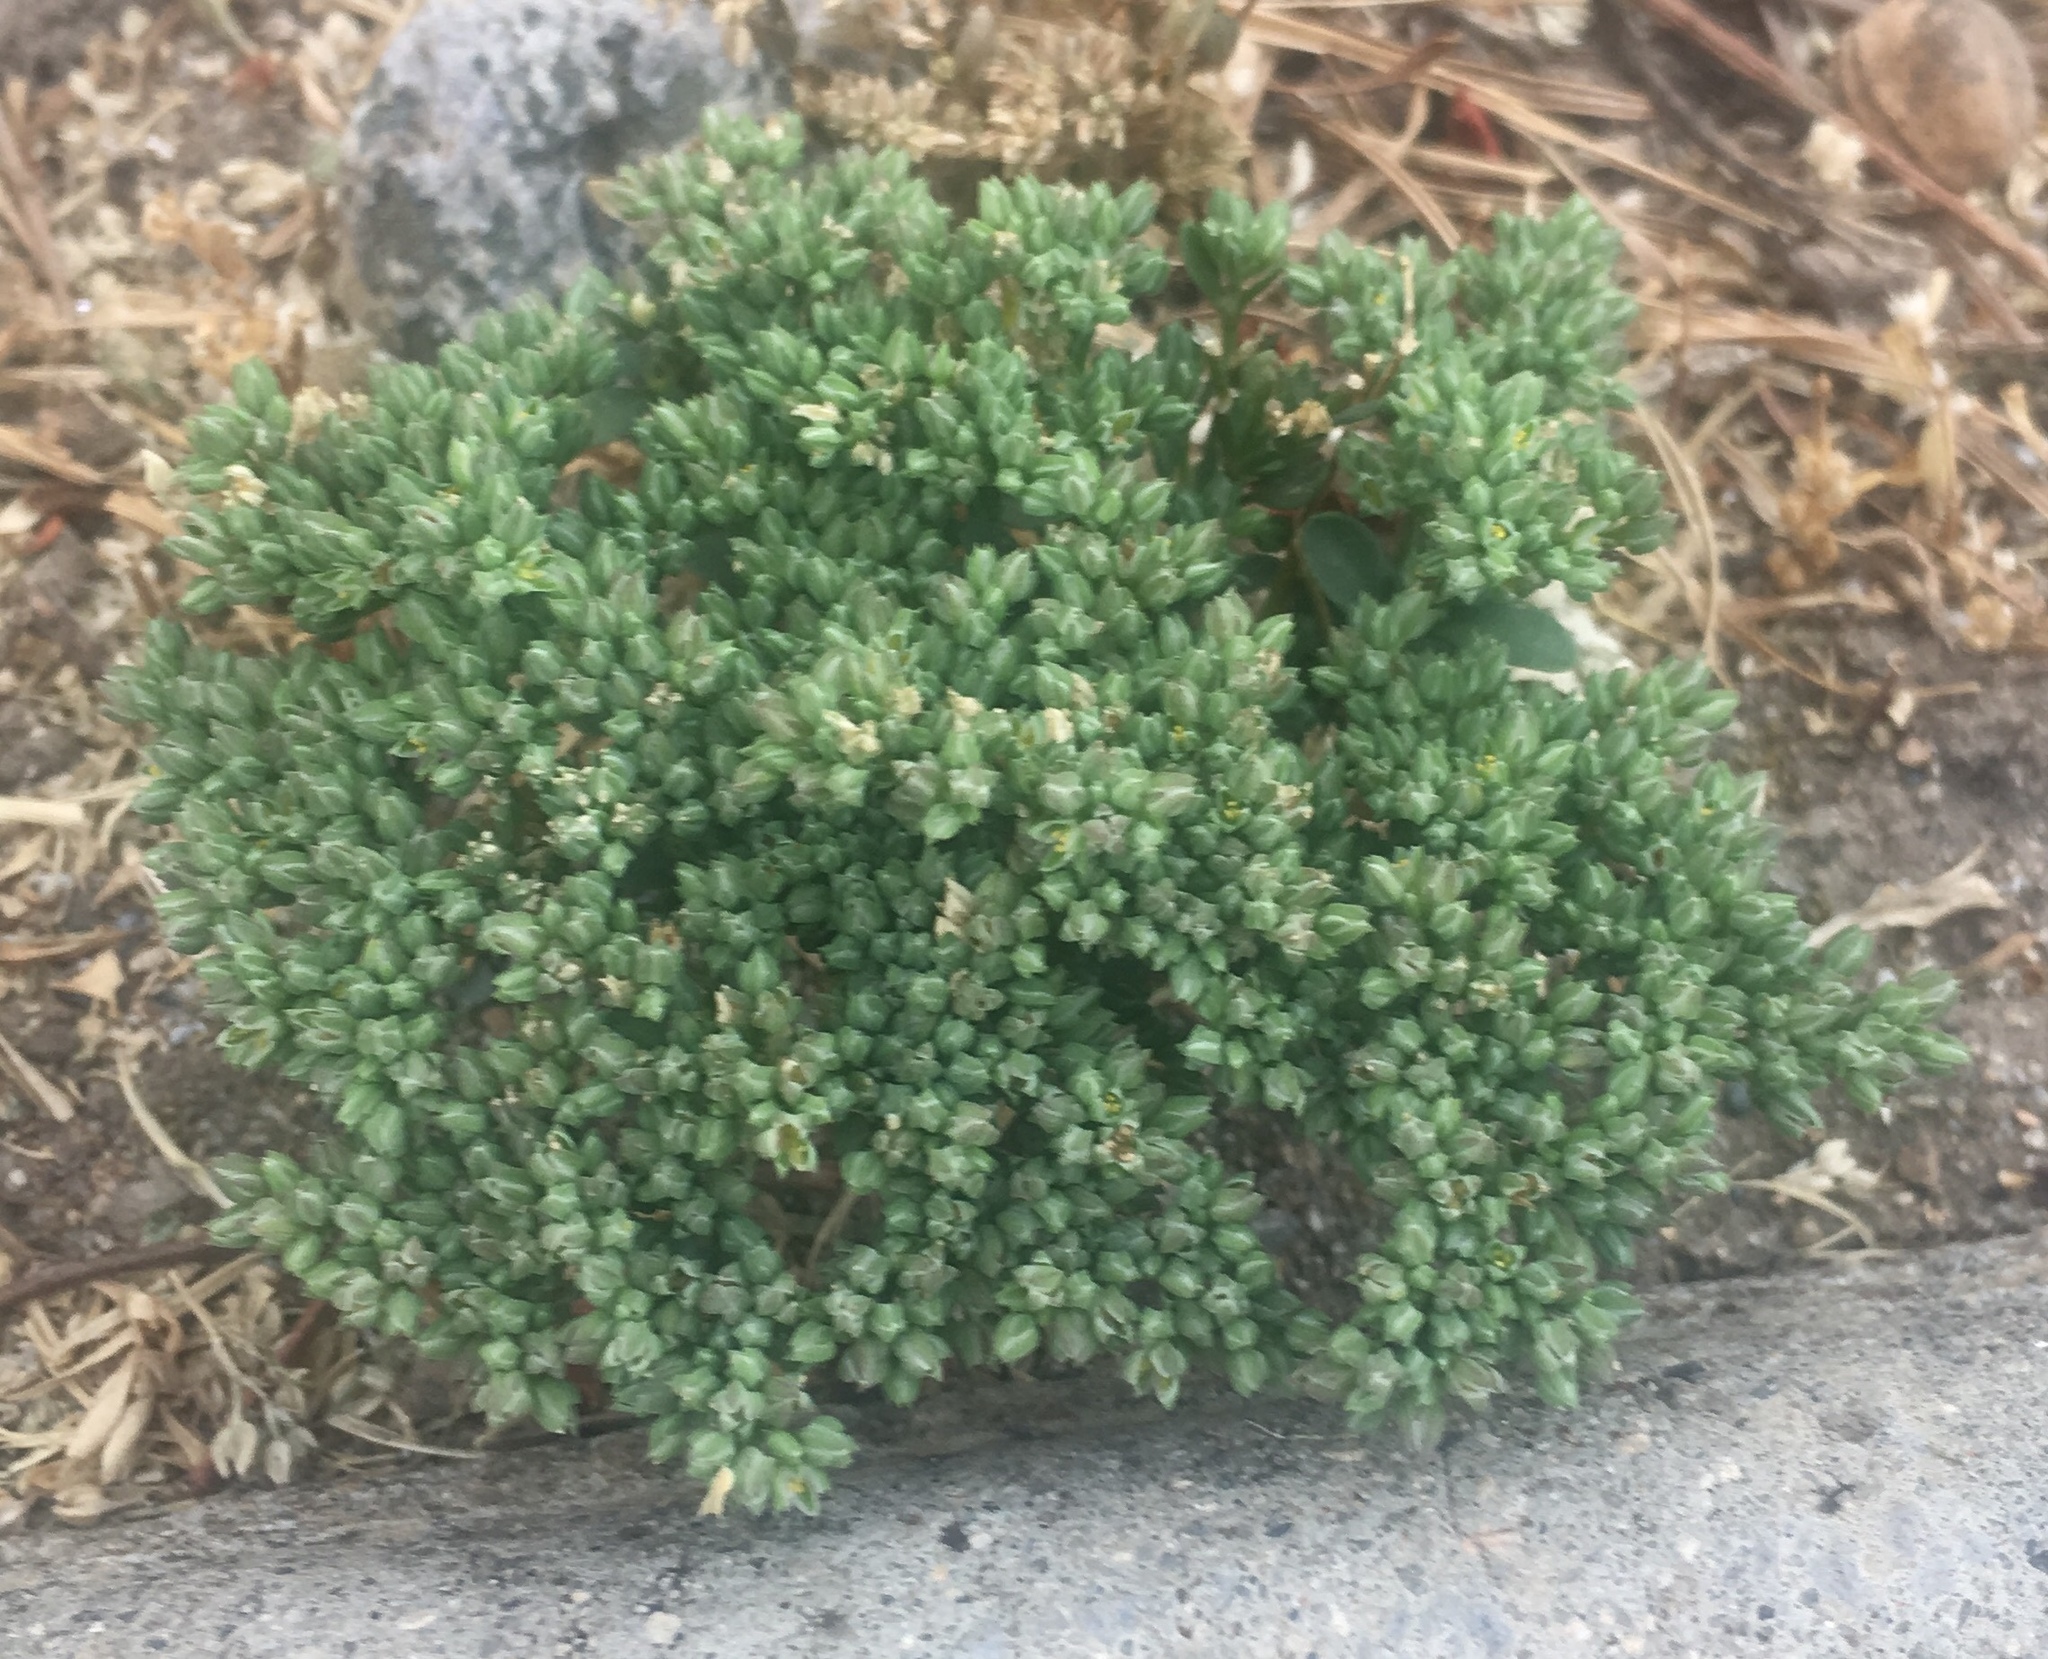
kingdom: Plantae
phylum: Tracheophyta
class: Magnoliopsida
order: Caryophyllales
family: Caryophyllaceae
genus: Polycarpon
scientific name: Polycarpon tetraphyllum
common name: Four-leaved all-seed
